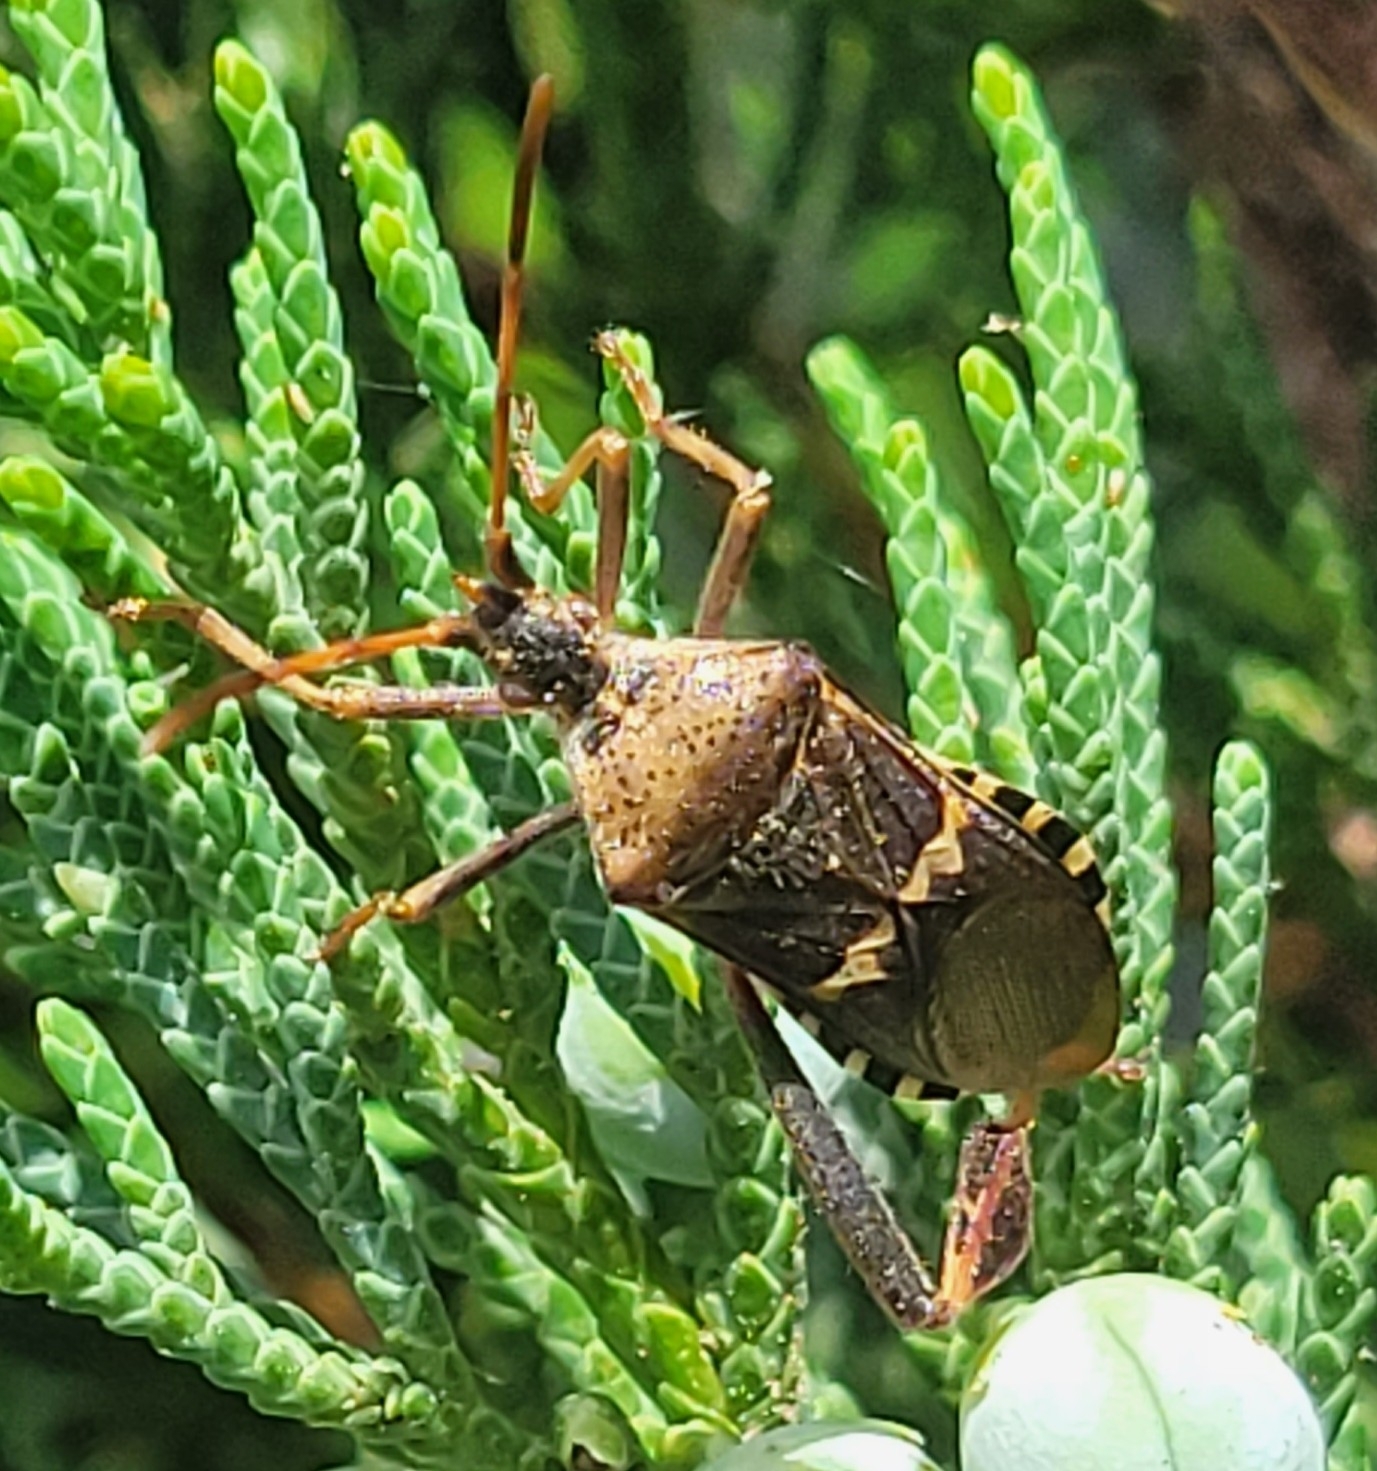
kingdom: Animalia
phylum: Arthropoda
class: Insecta
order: Hemiptera
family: Coreidae
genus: Leptoglossus
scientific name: Leptoglossus clypealis
